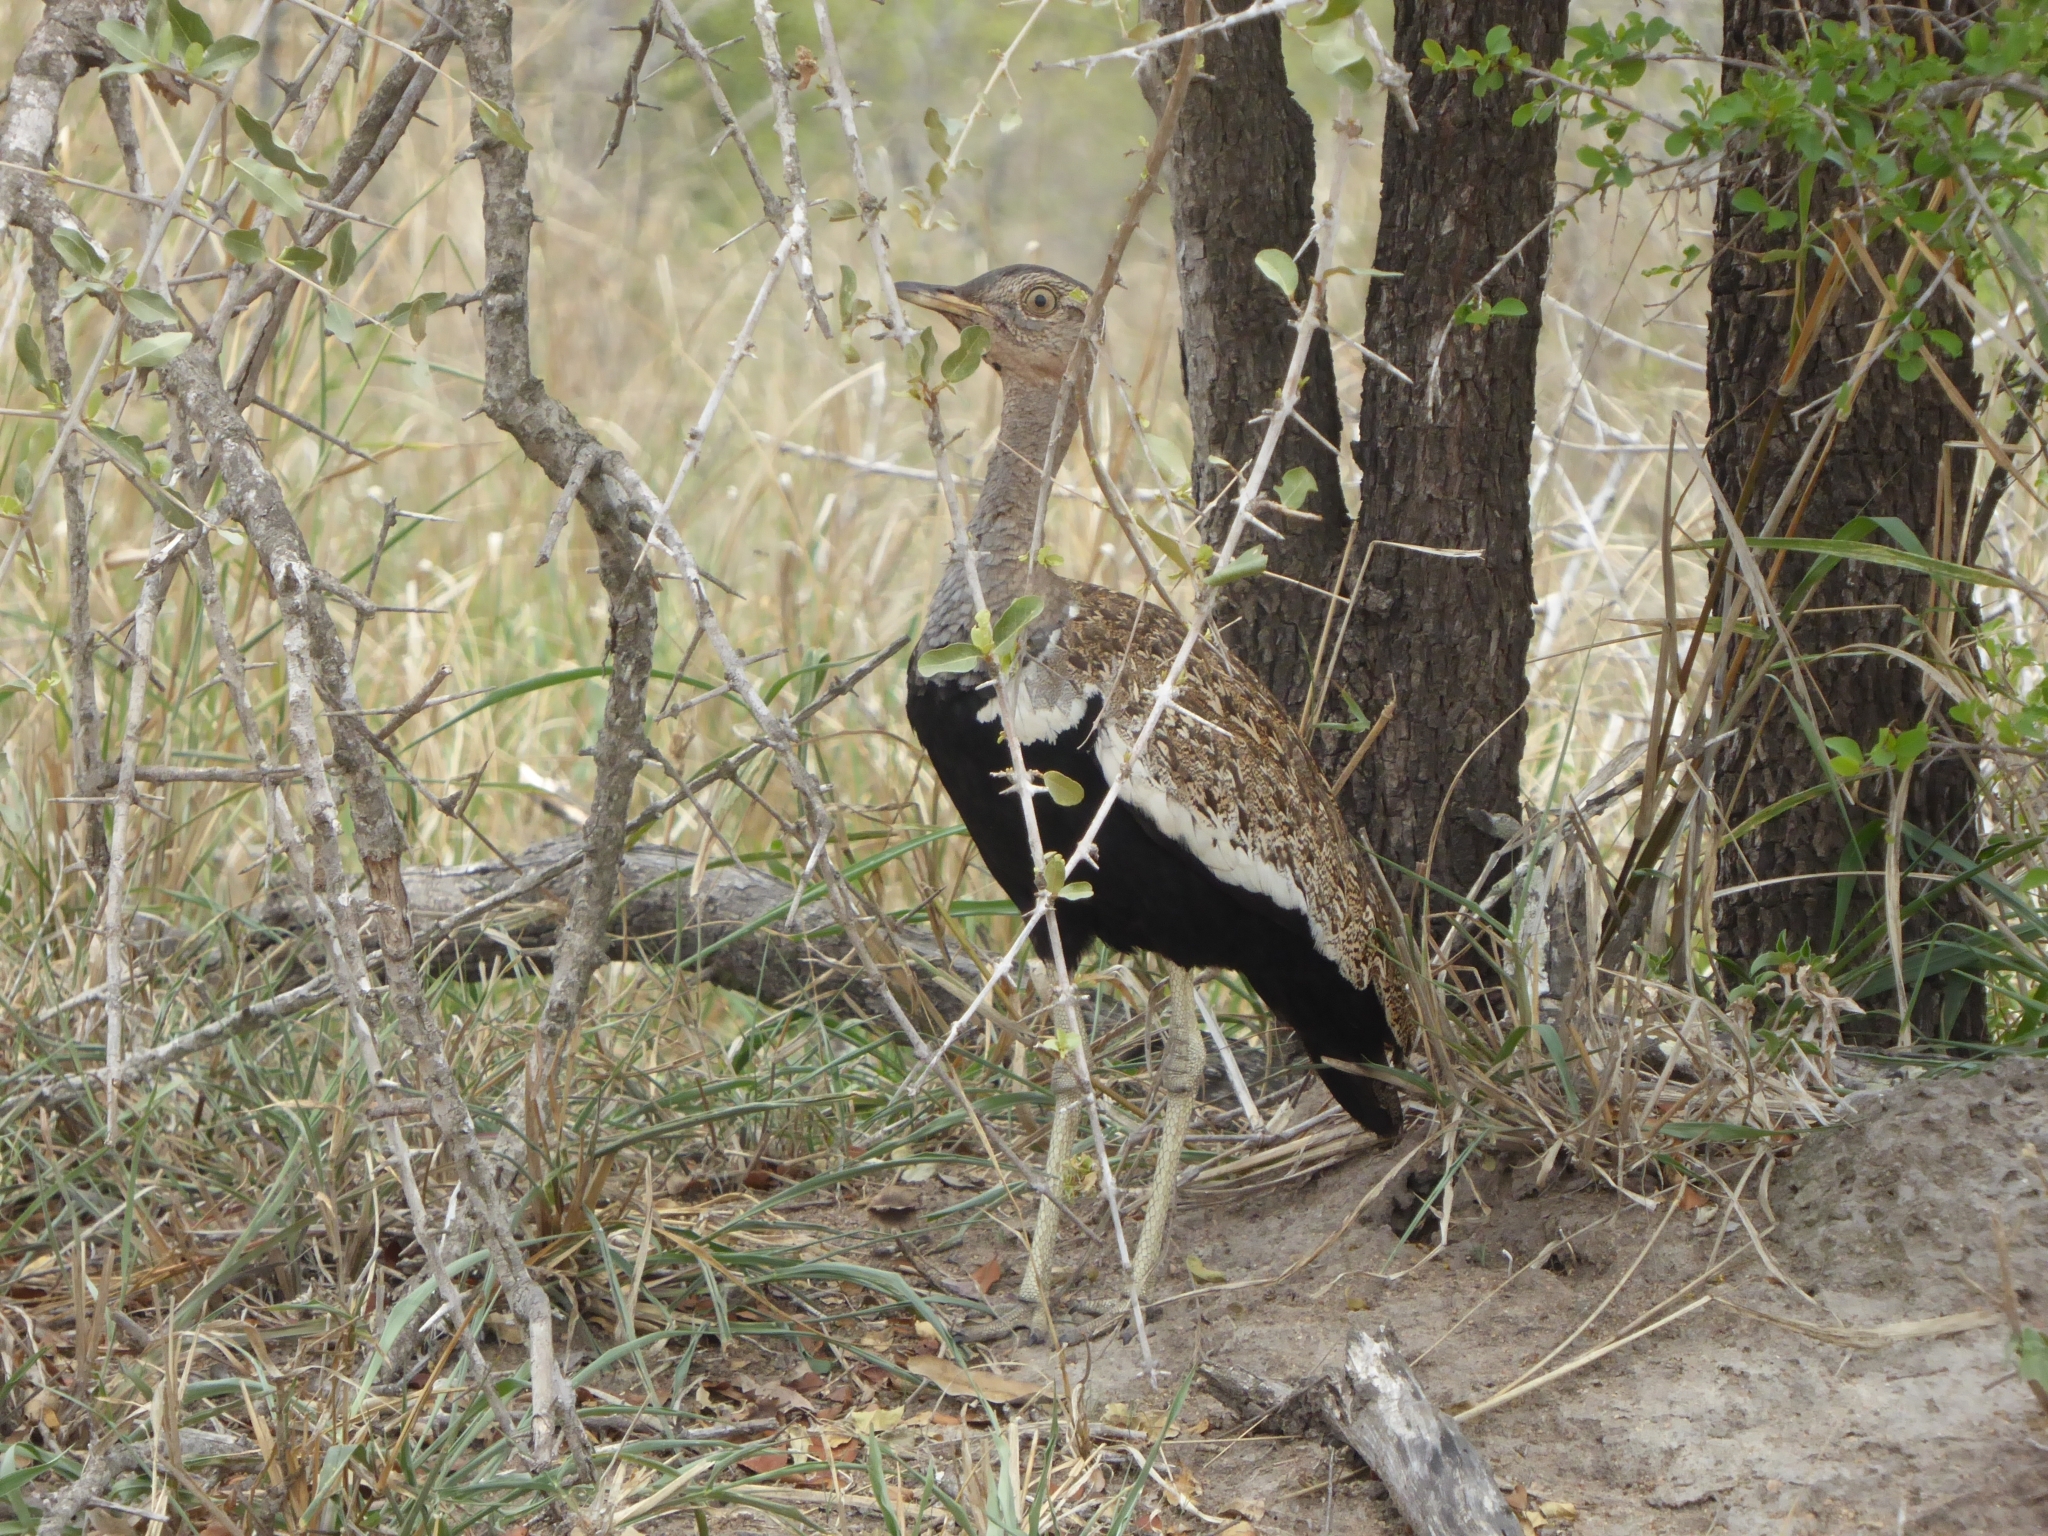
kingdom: Animalia
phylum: Chordata
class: Aves
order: Otidiformes
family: Otididae
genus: Lophotis
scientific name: Lophotis ruficrista
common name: Red-crested korhaan
